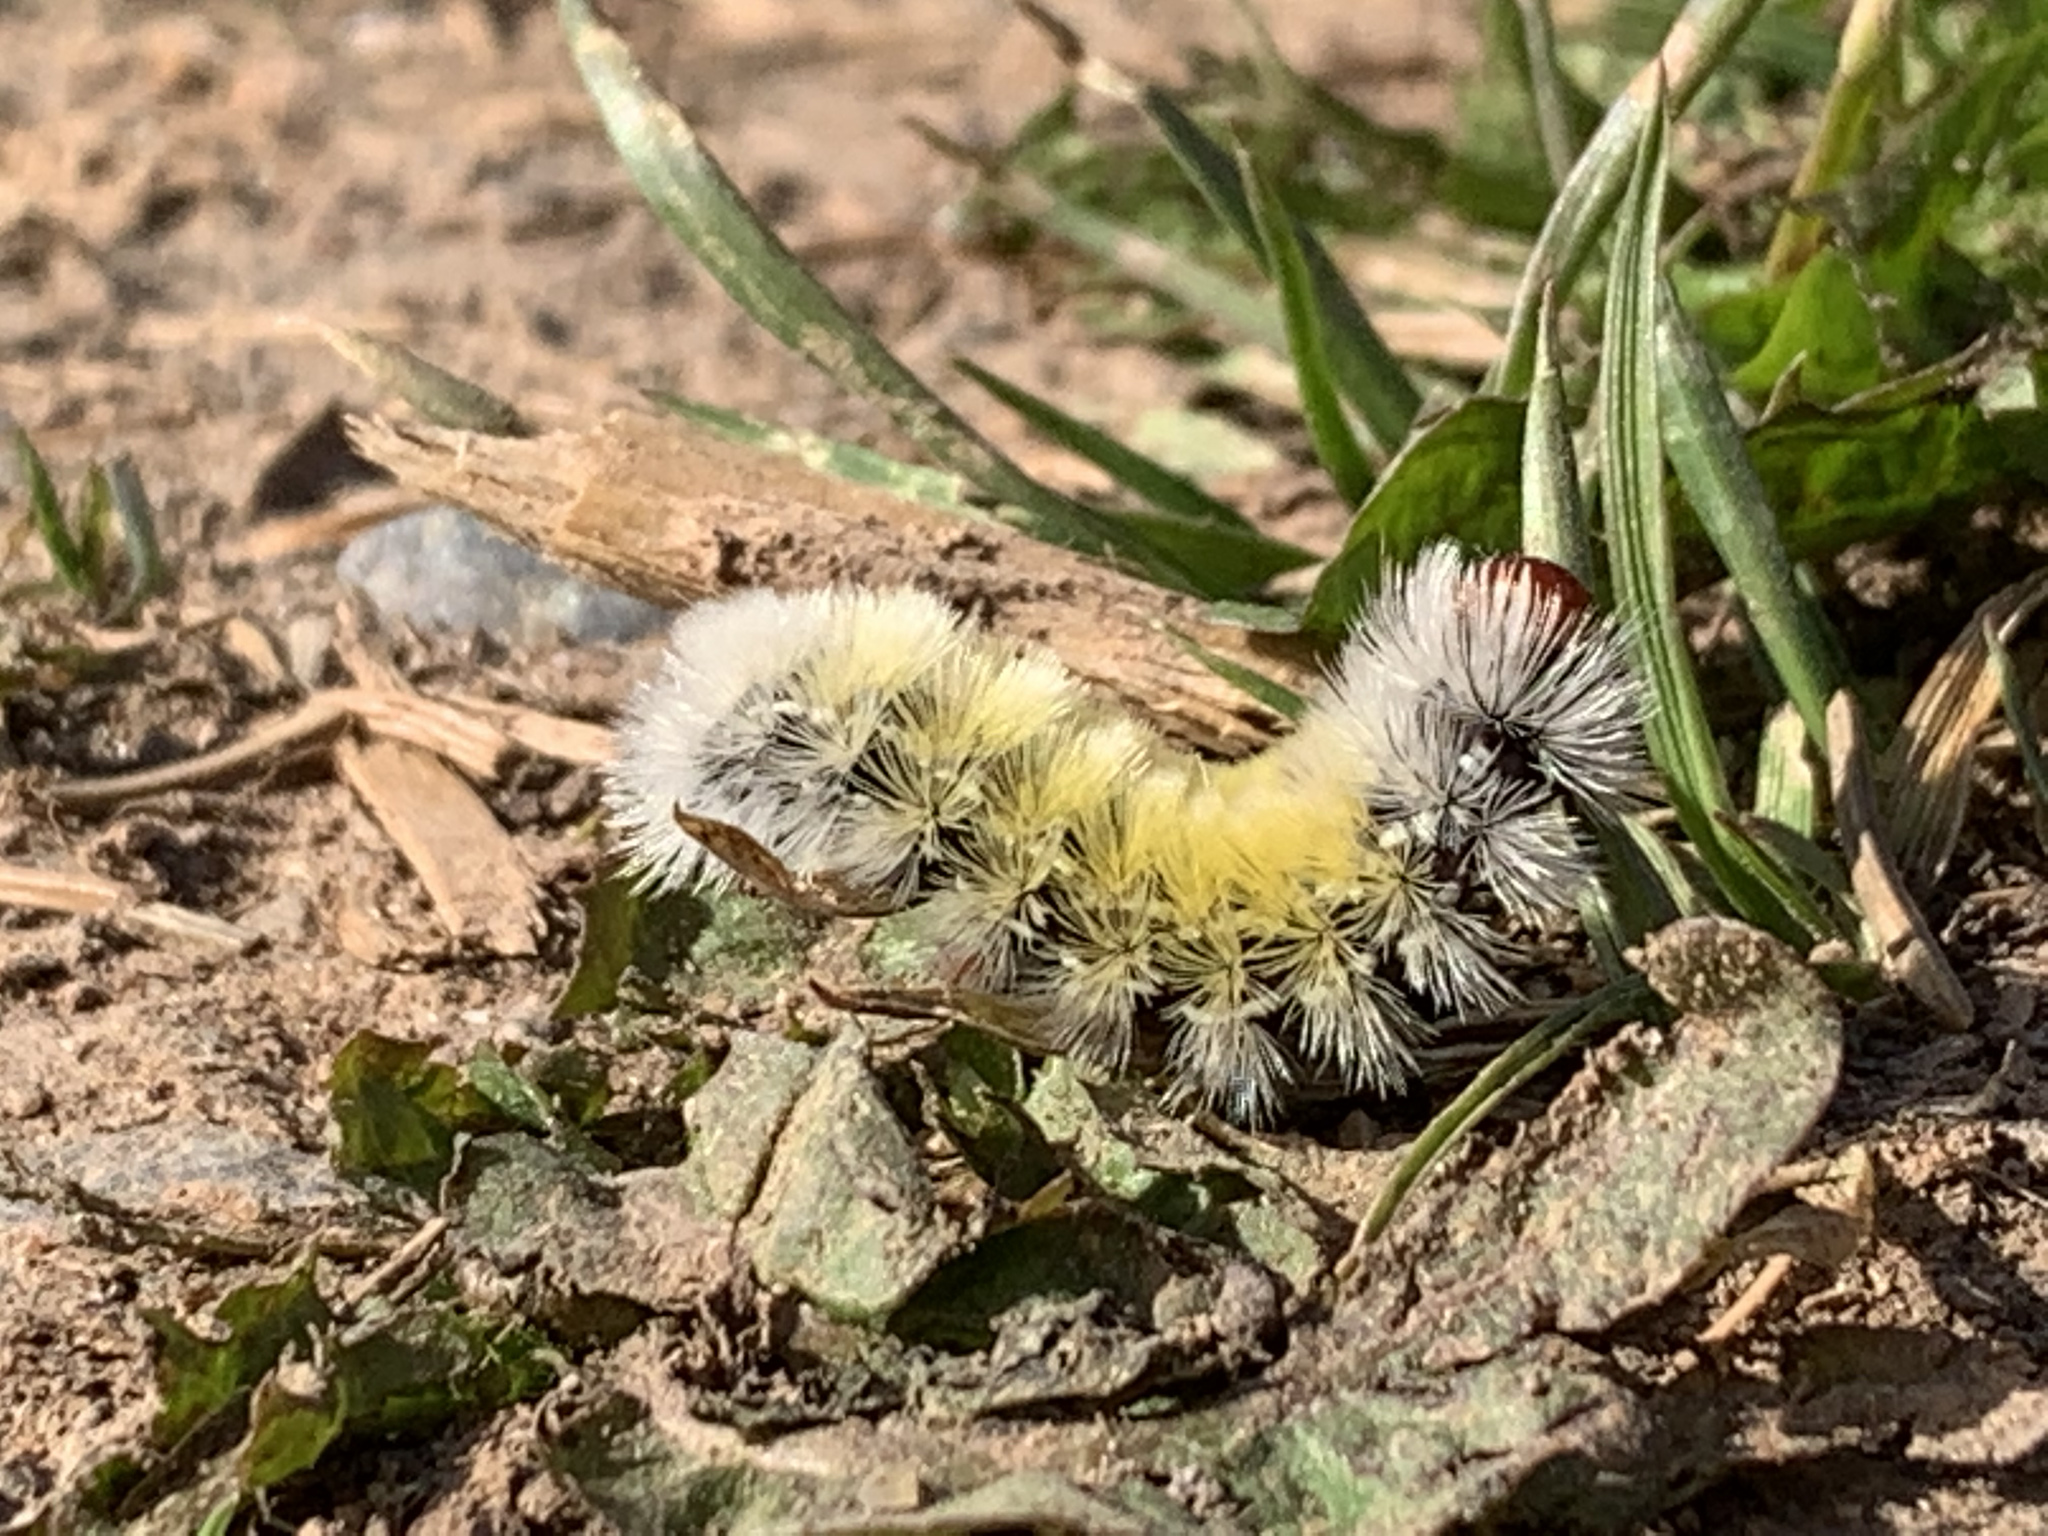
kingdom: Animalia
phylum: Arthropoda
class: Insecta
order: Lepidoptera
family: Erebidae
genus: Ctenucha
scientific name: Ctenucha virginica
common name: Virginia ctenucha moth
